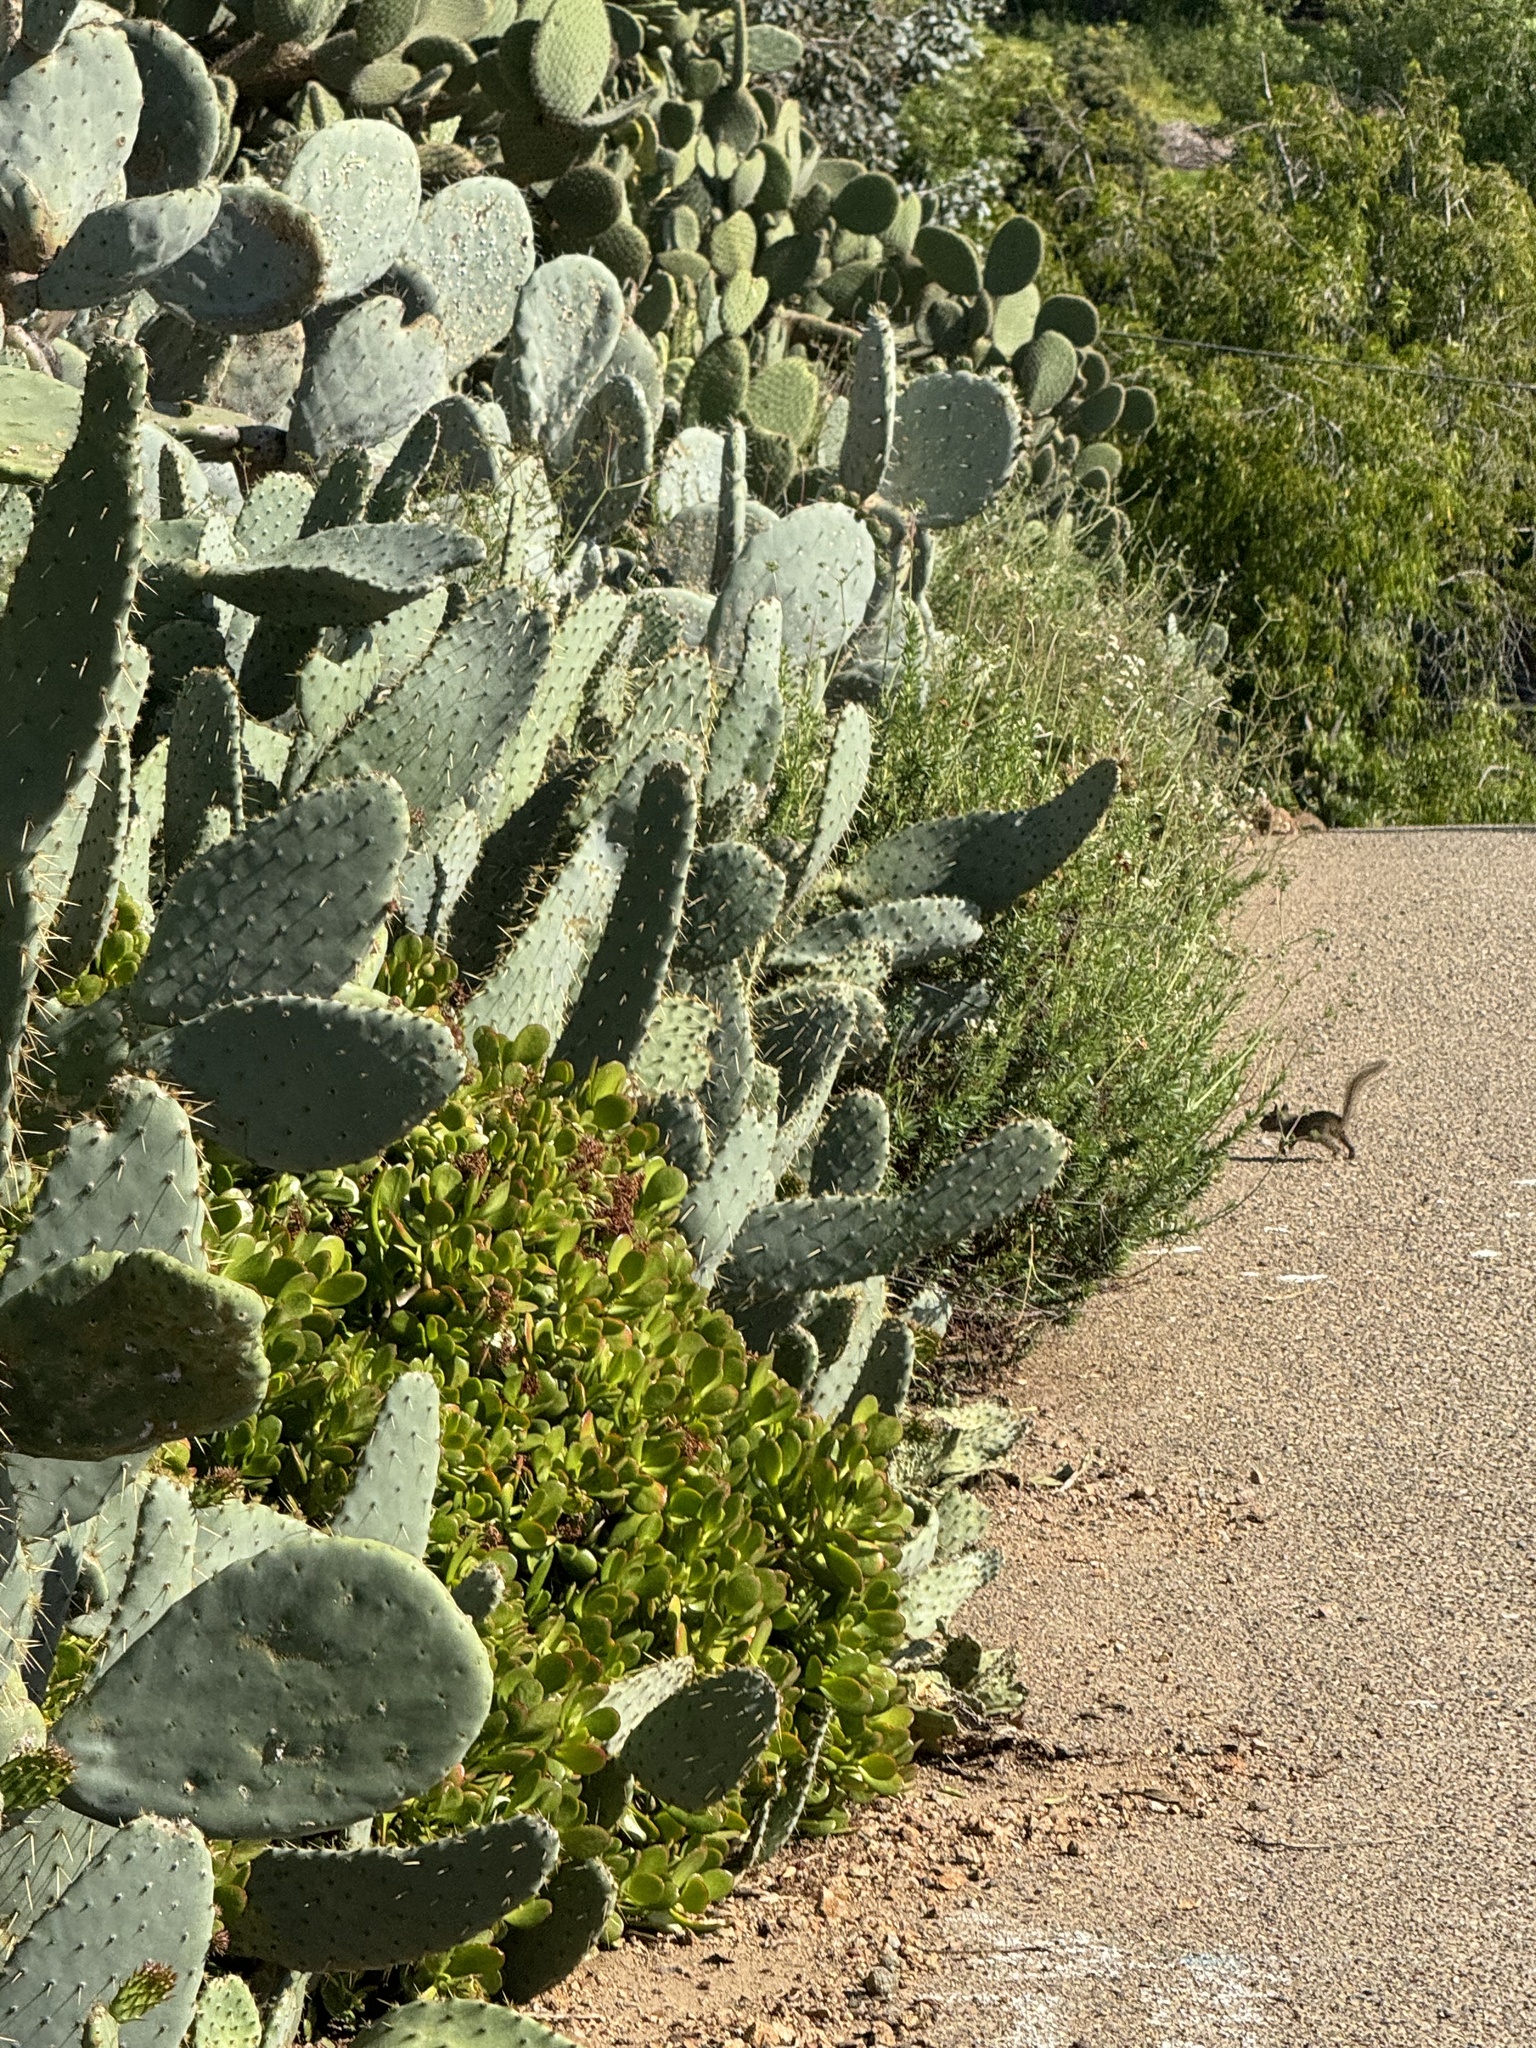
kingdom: Animalia
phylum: Chordata
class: Mammalia
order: Rodentia
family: Sciuridae
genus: Otospermophilus
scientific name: Otospermophilus beecheyi
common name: California ground squirrel
